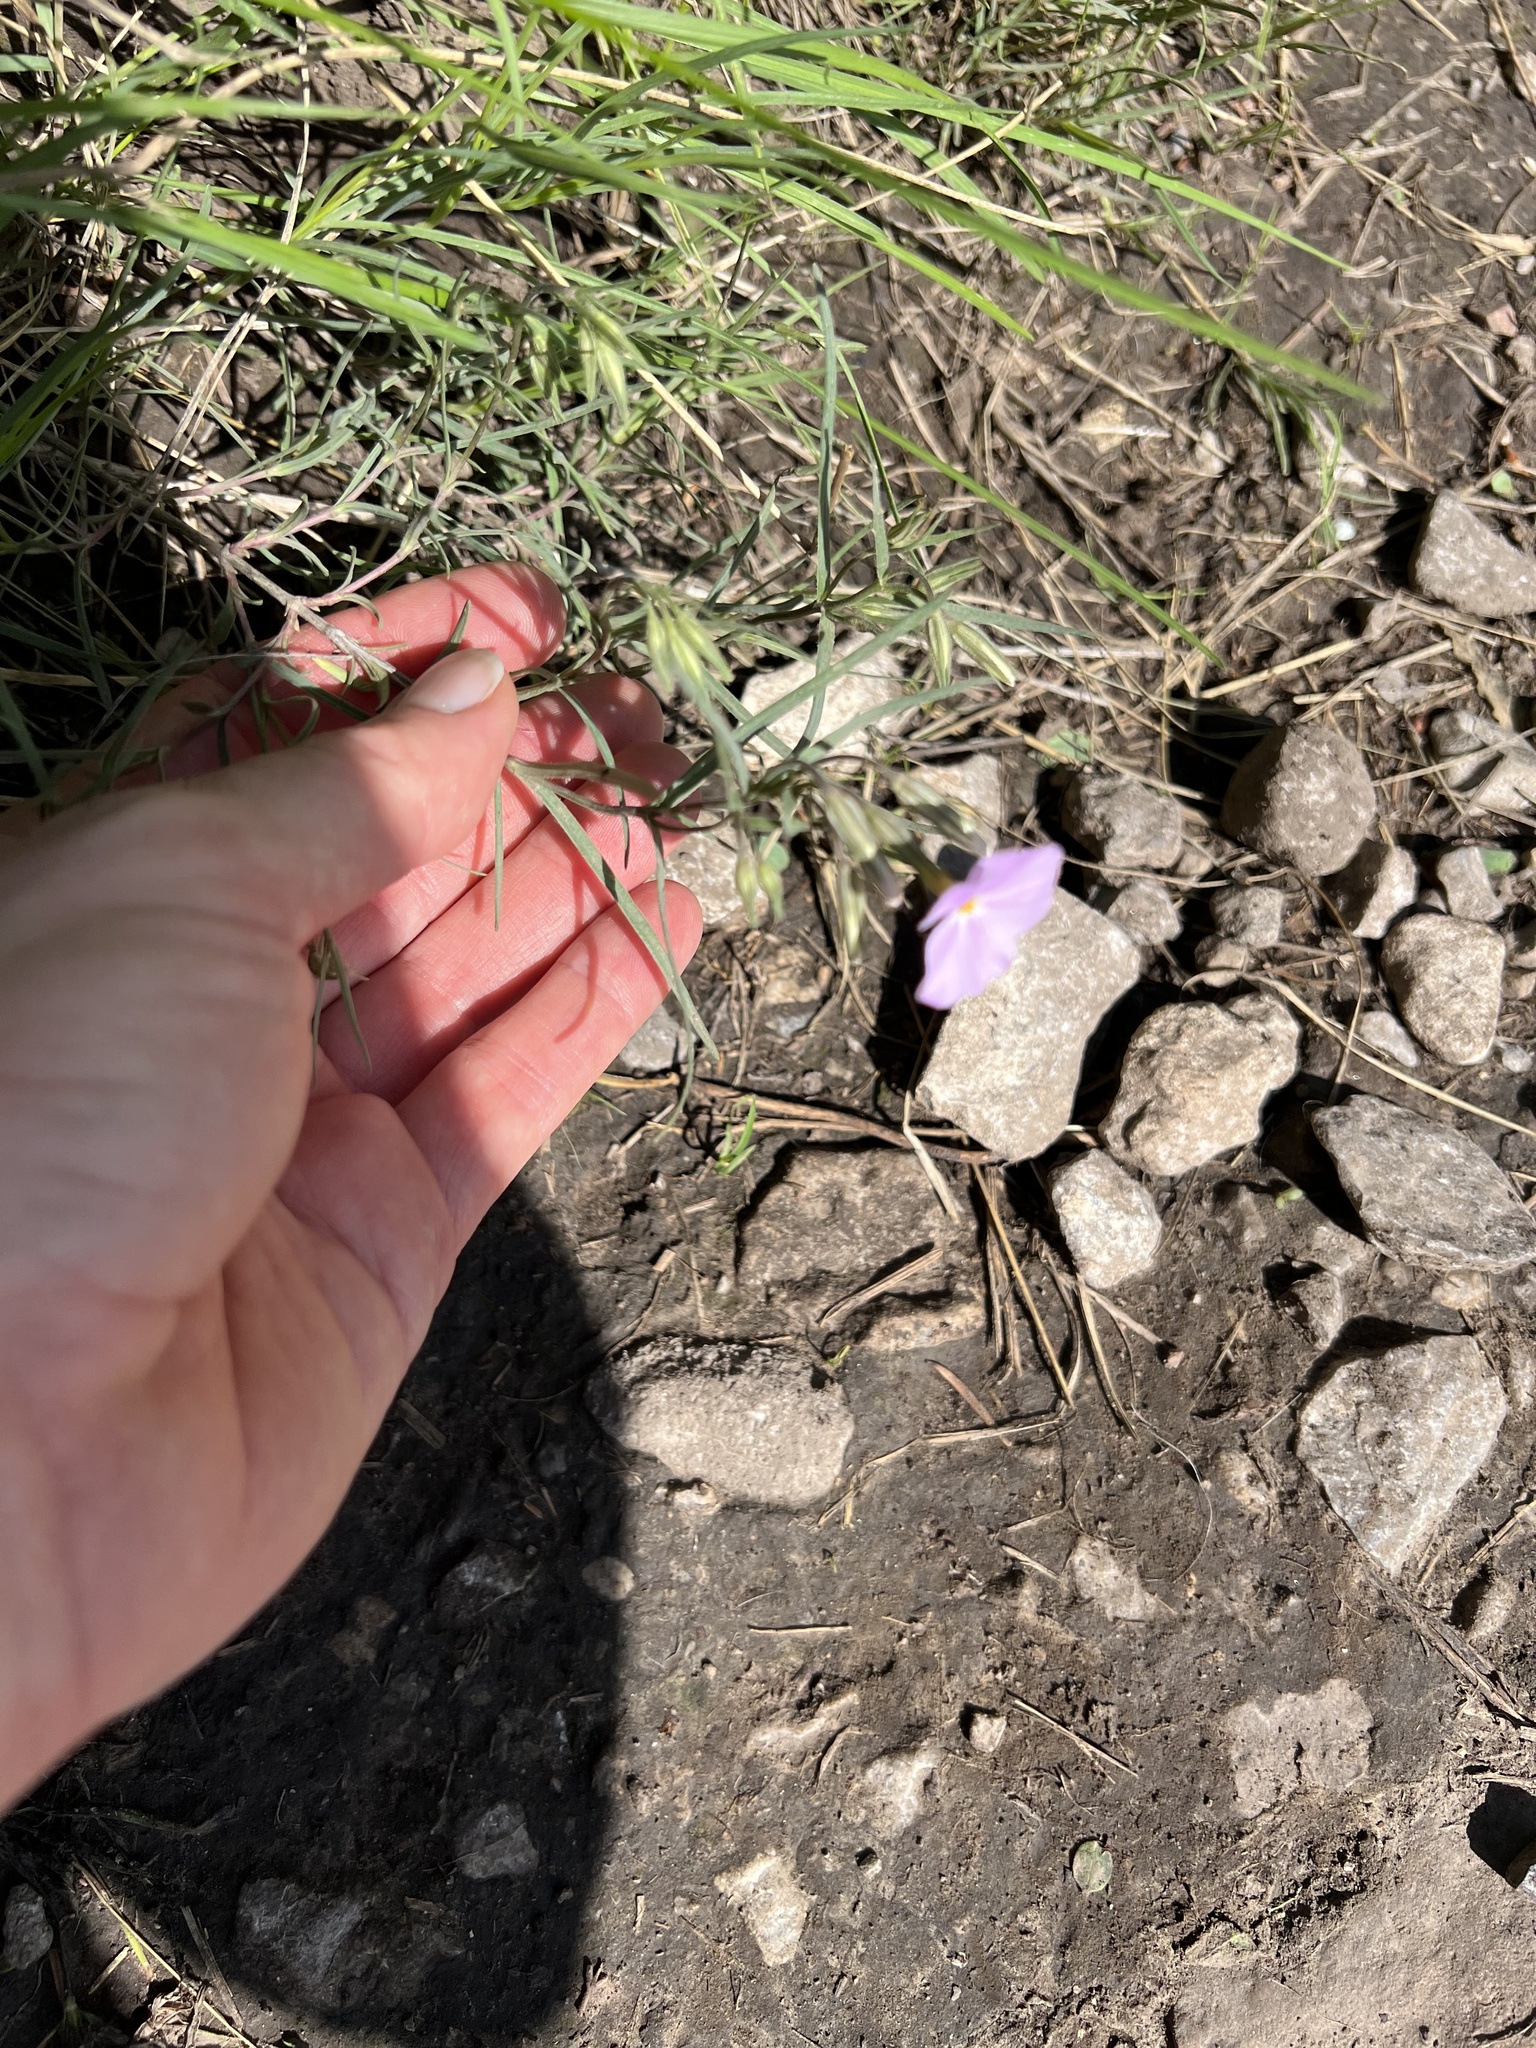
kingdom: Plantae
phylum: Tracheophyta
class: Magnoliopsida
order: Ericales
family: Polemoniaceae
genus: Phlox
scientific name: Phlox longifolia
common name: Longleaf phlox
